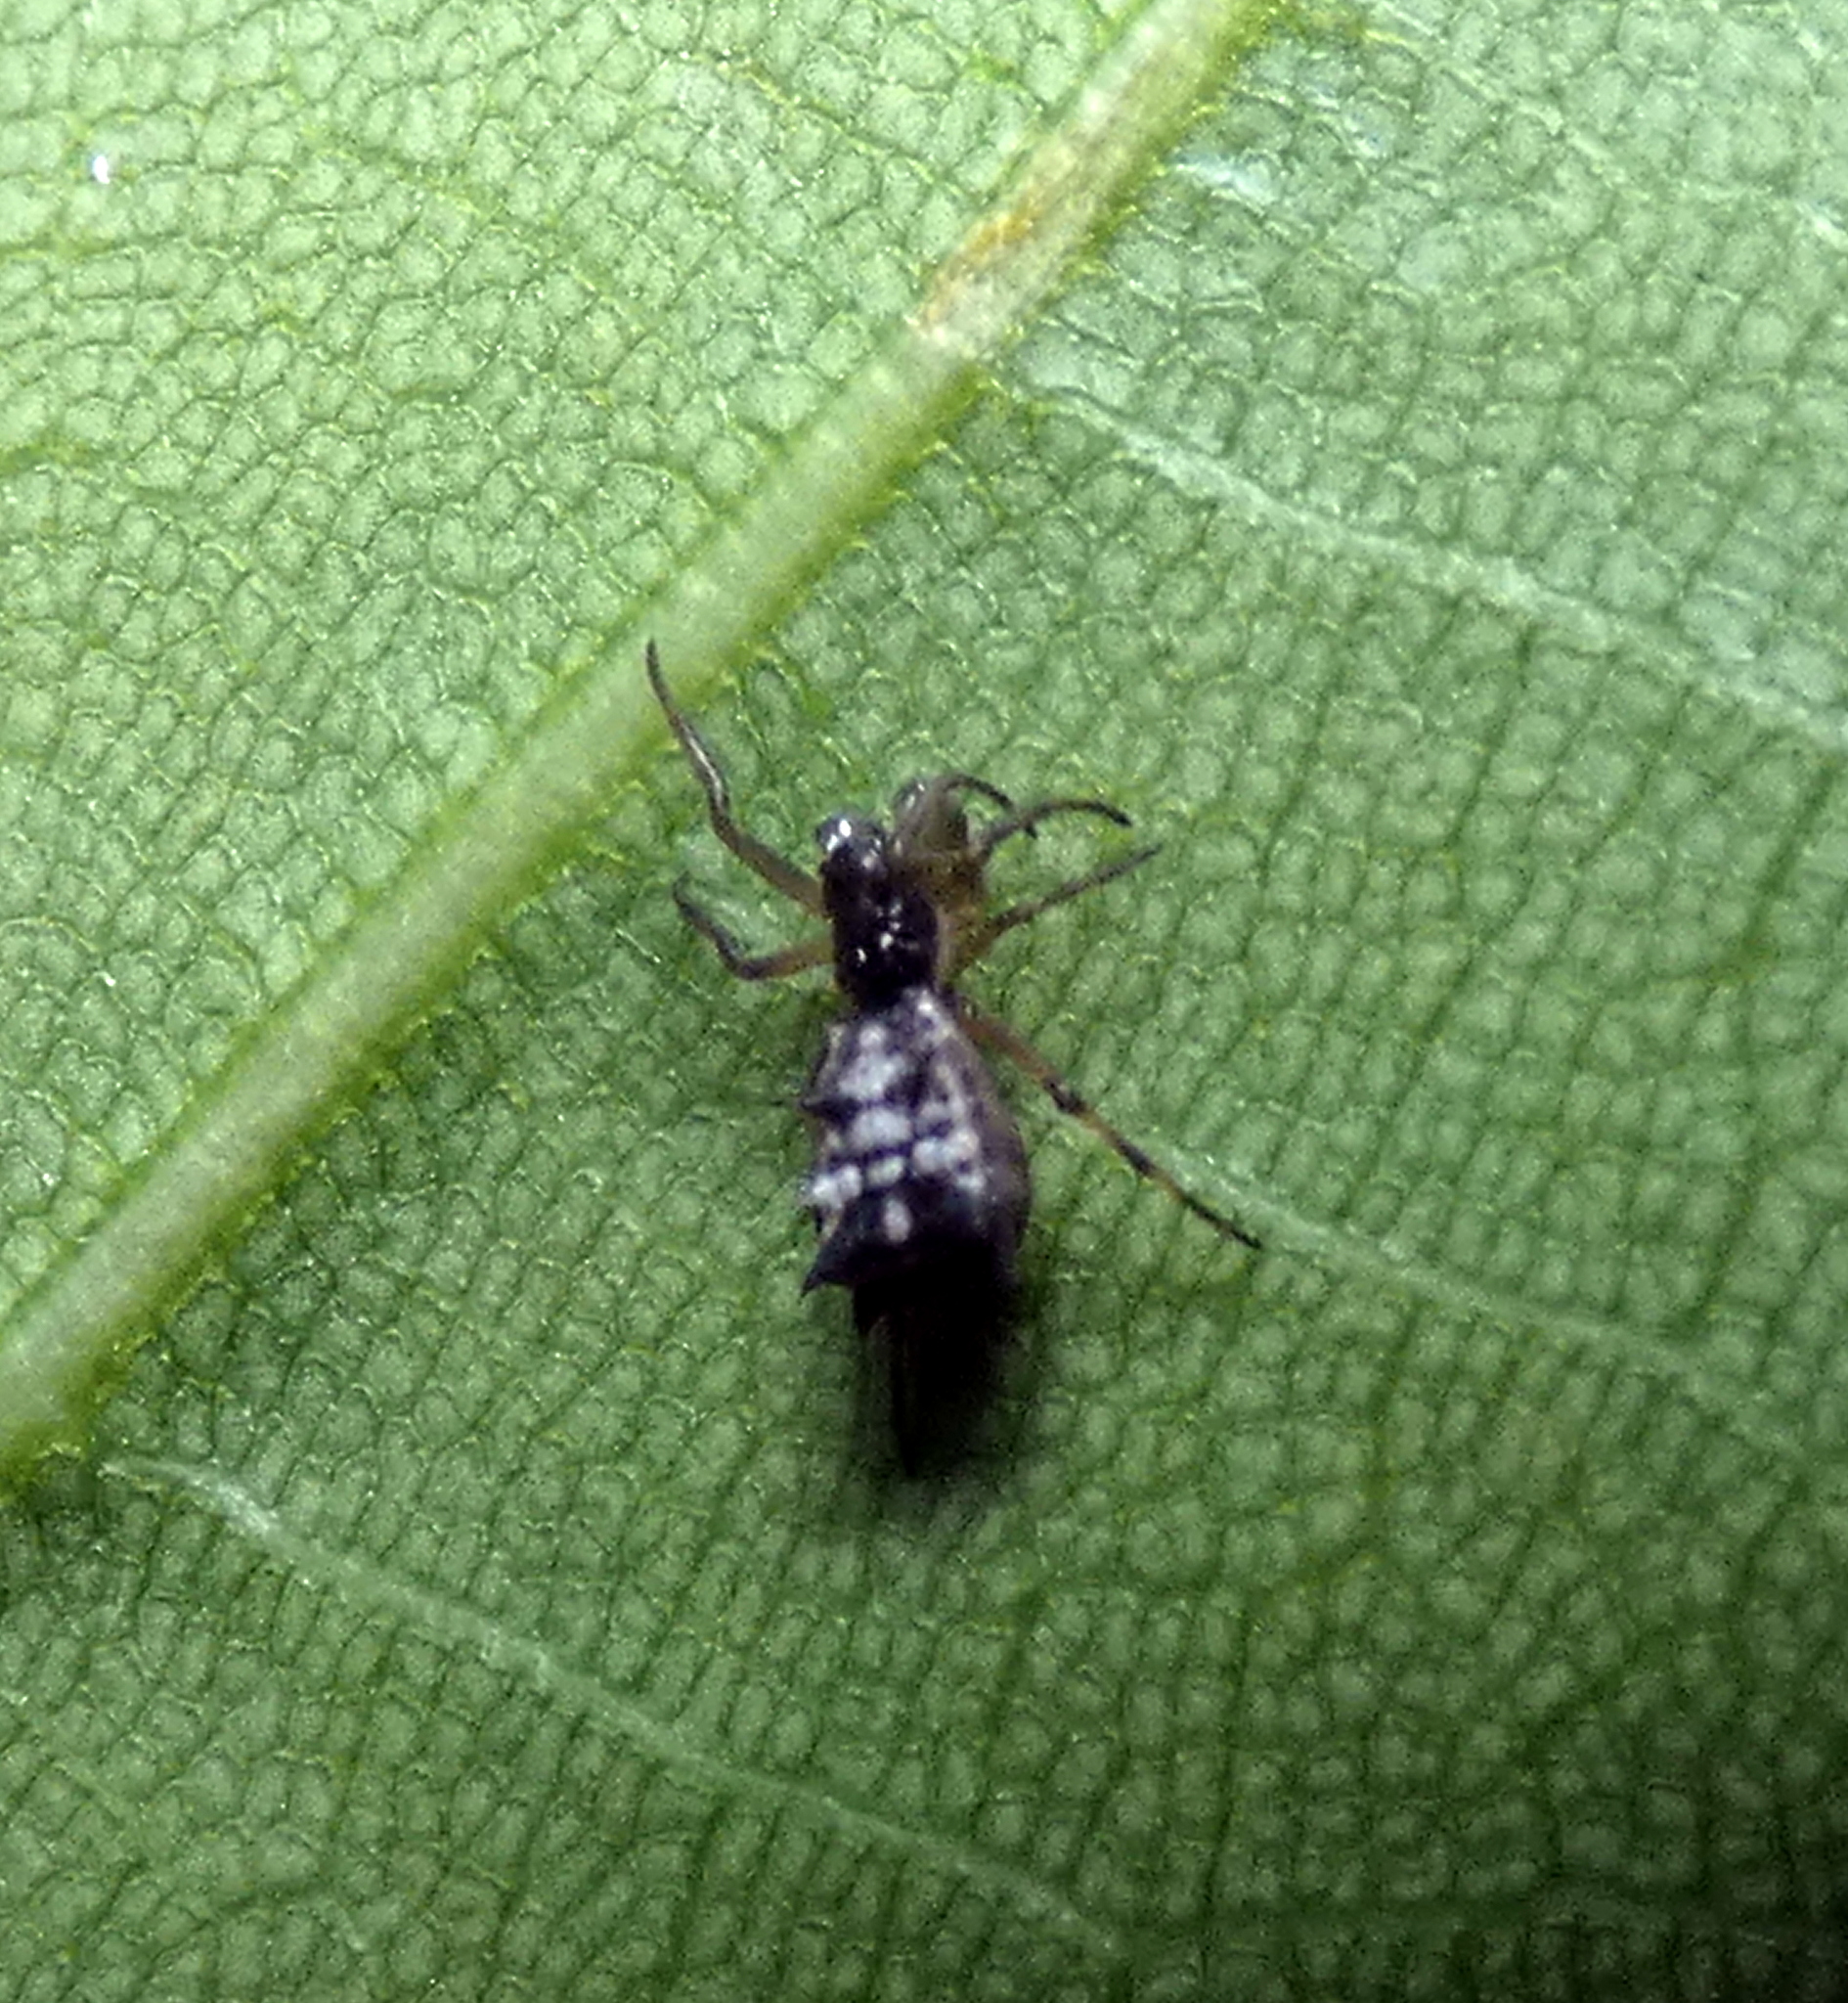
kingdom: Animalia
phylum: Arthropoda
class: Arachnida
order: Araneae
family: Araneidae
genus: Micrathena
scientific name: Micrathena picta
